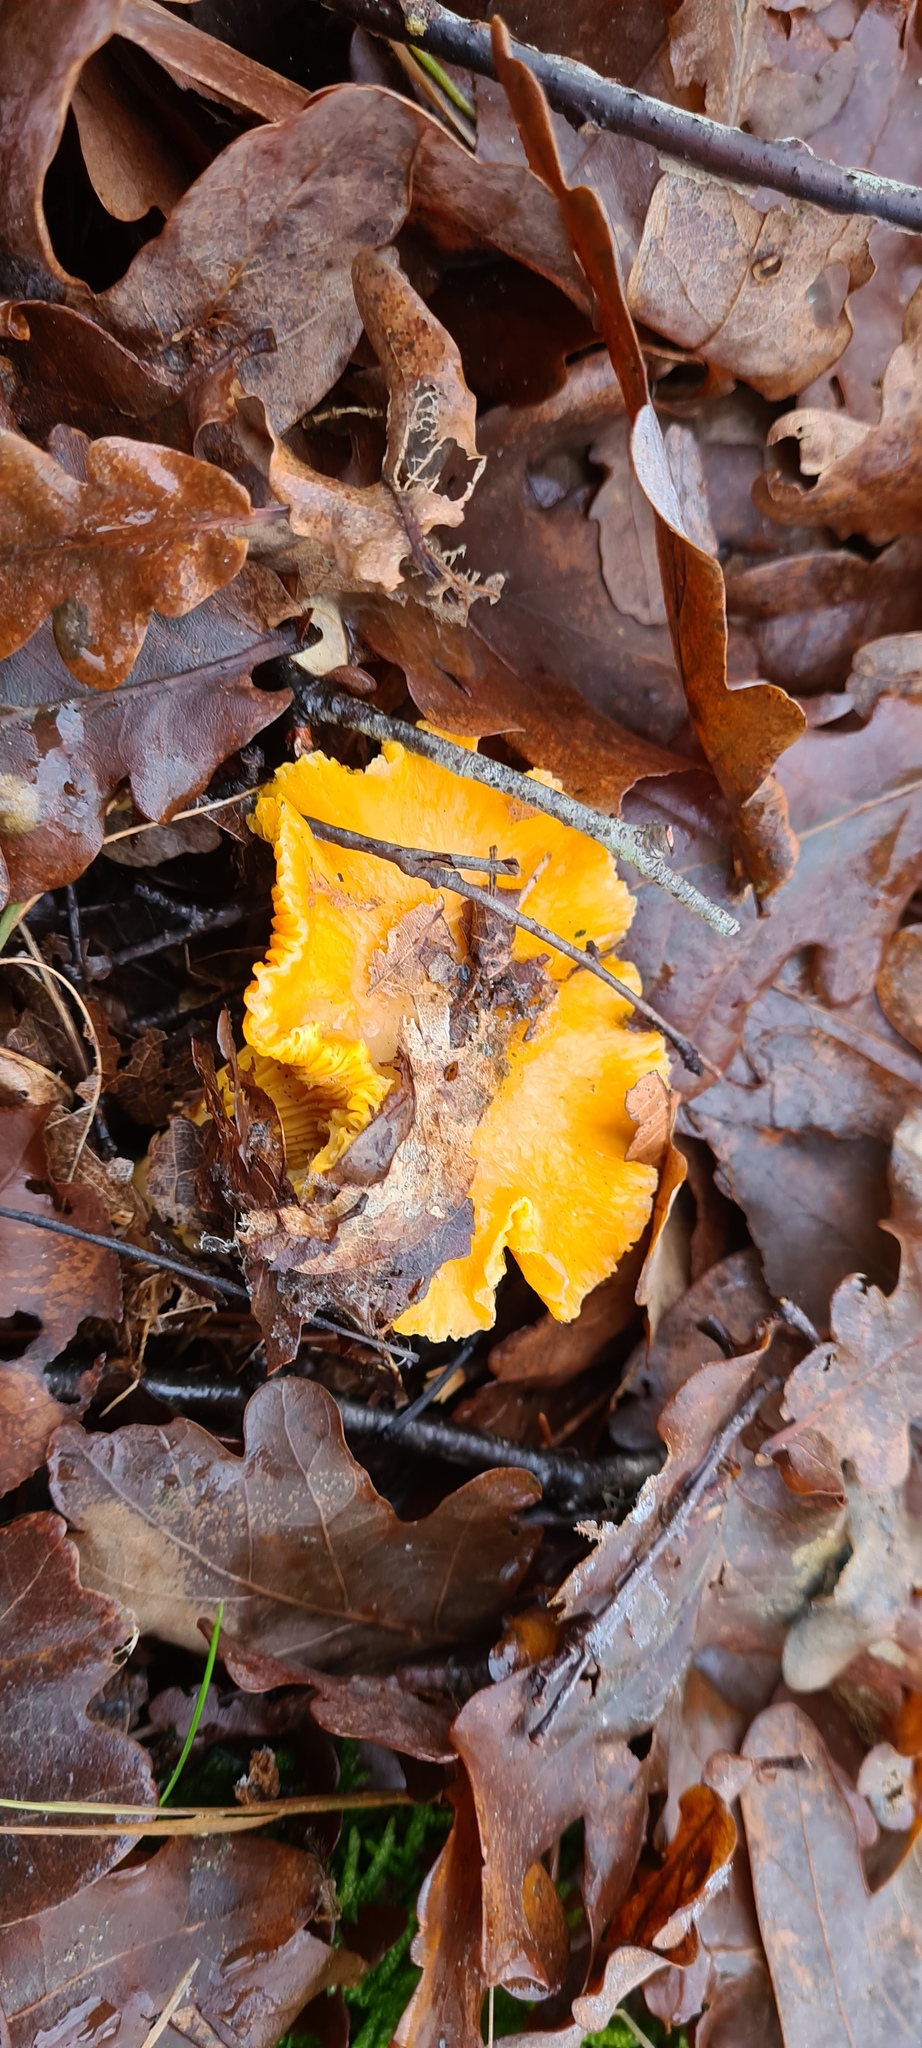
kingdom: Fungi
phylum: Basidiomycota
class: Agaricomycetes
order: Cantharellales
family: Hydnaceae
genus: Cantharellus
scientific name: Cantharellus cibarius
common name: Chanterelle
